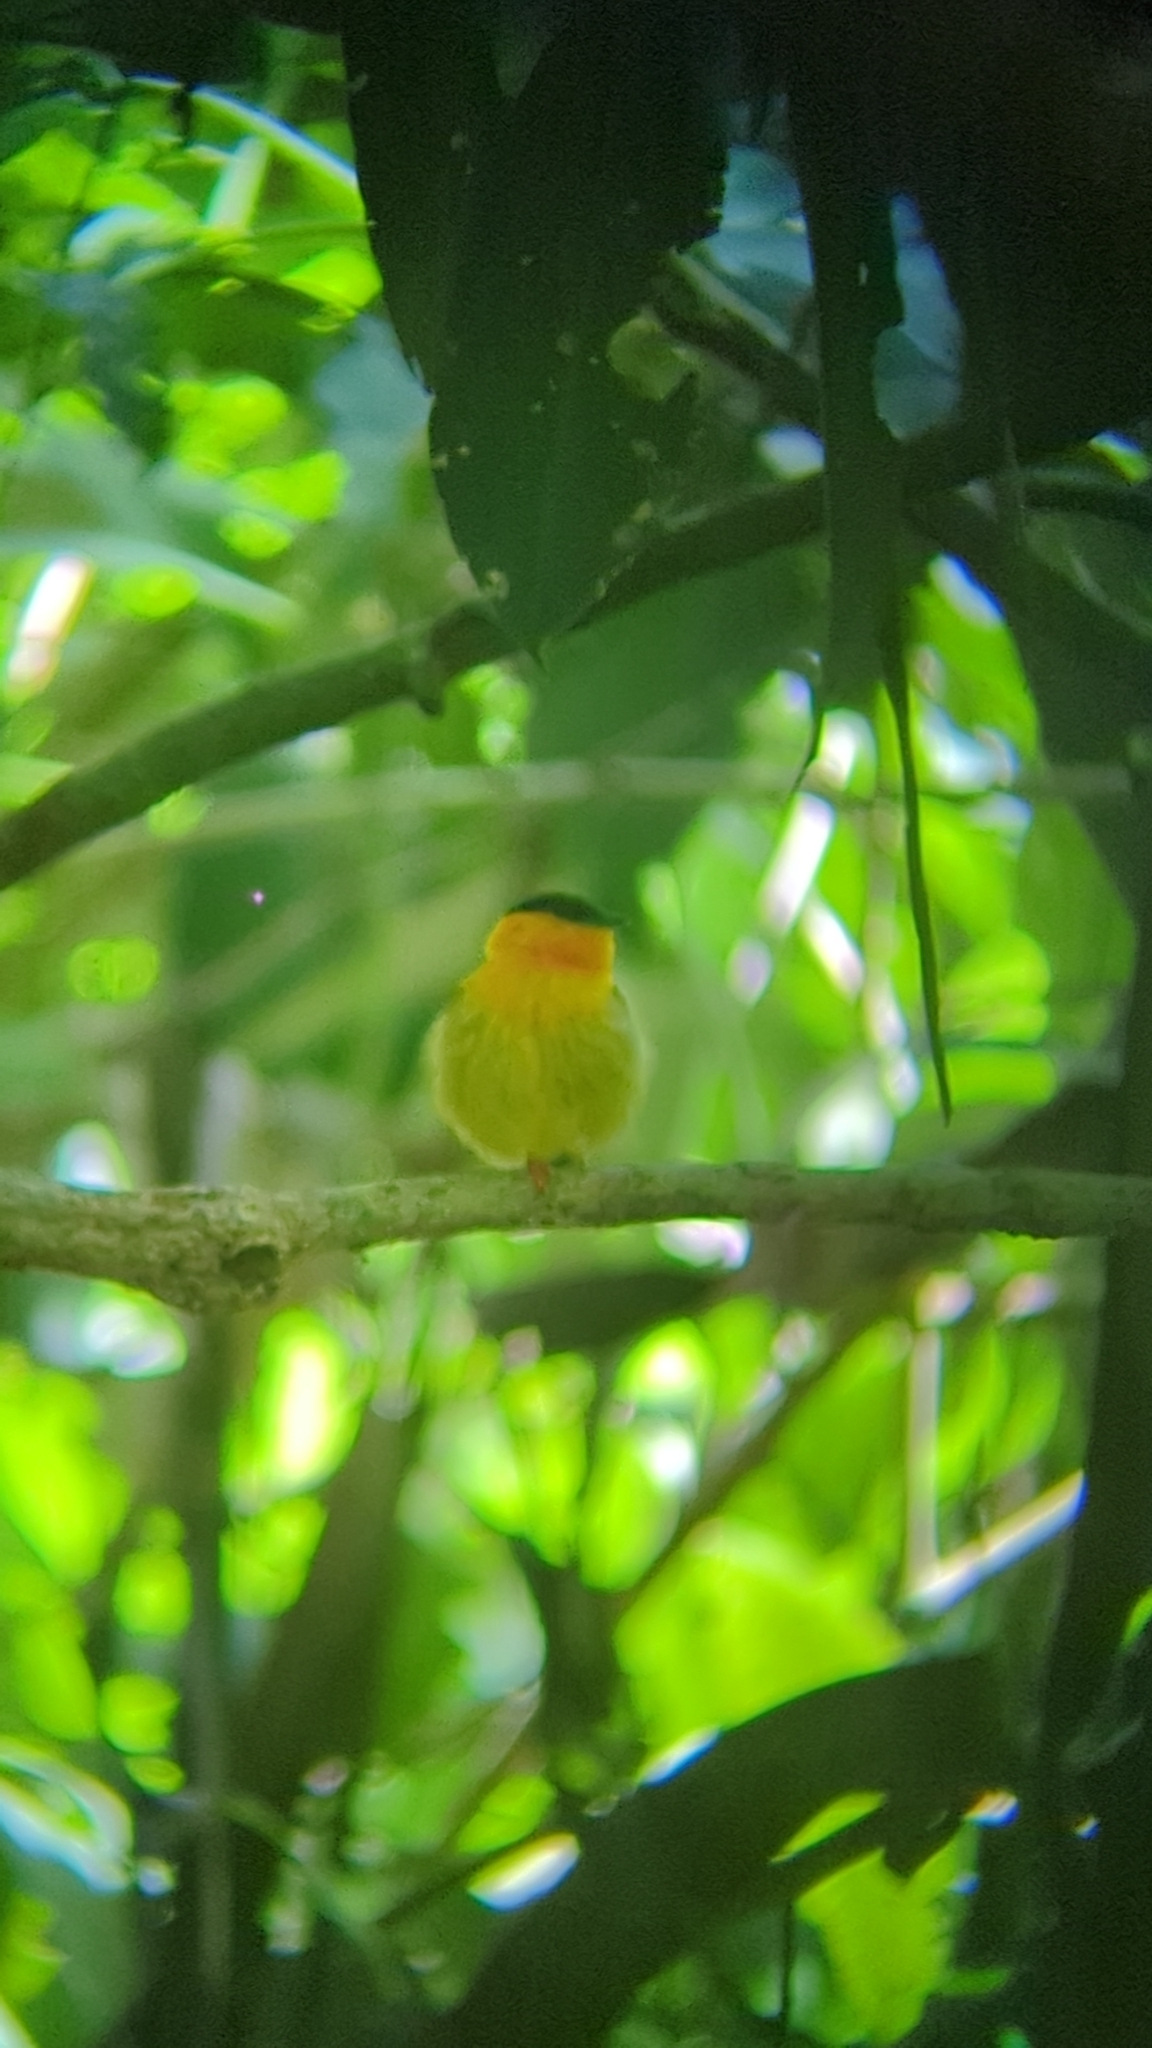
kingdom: Animalia
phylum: Chordata
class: Aves
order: Passeriformes
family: Pipridae
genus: Manacus
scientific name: Manacus aurantiacus
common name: Orange-collared manakin
